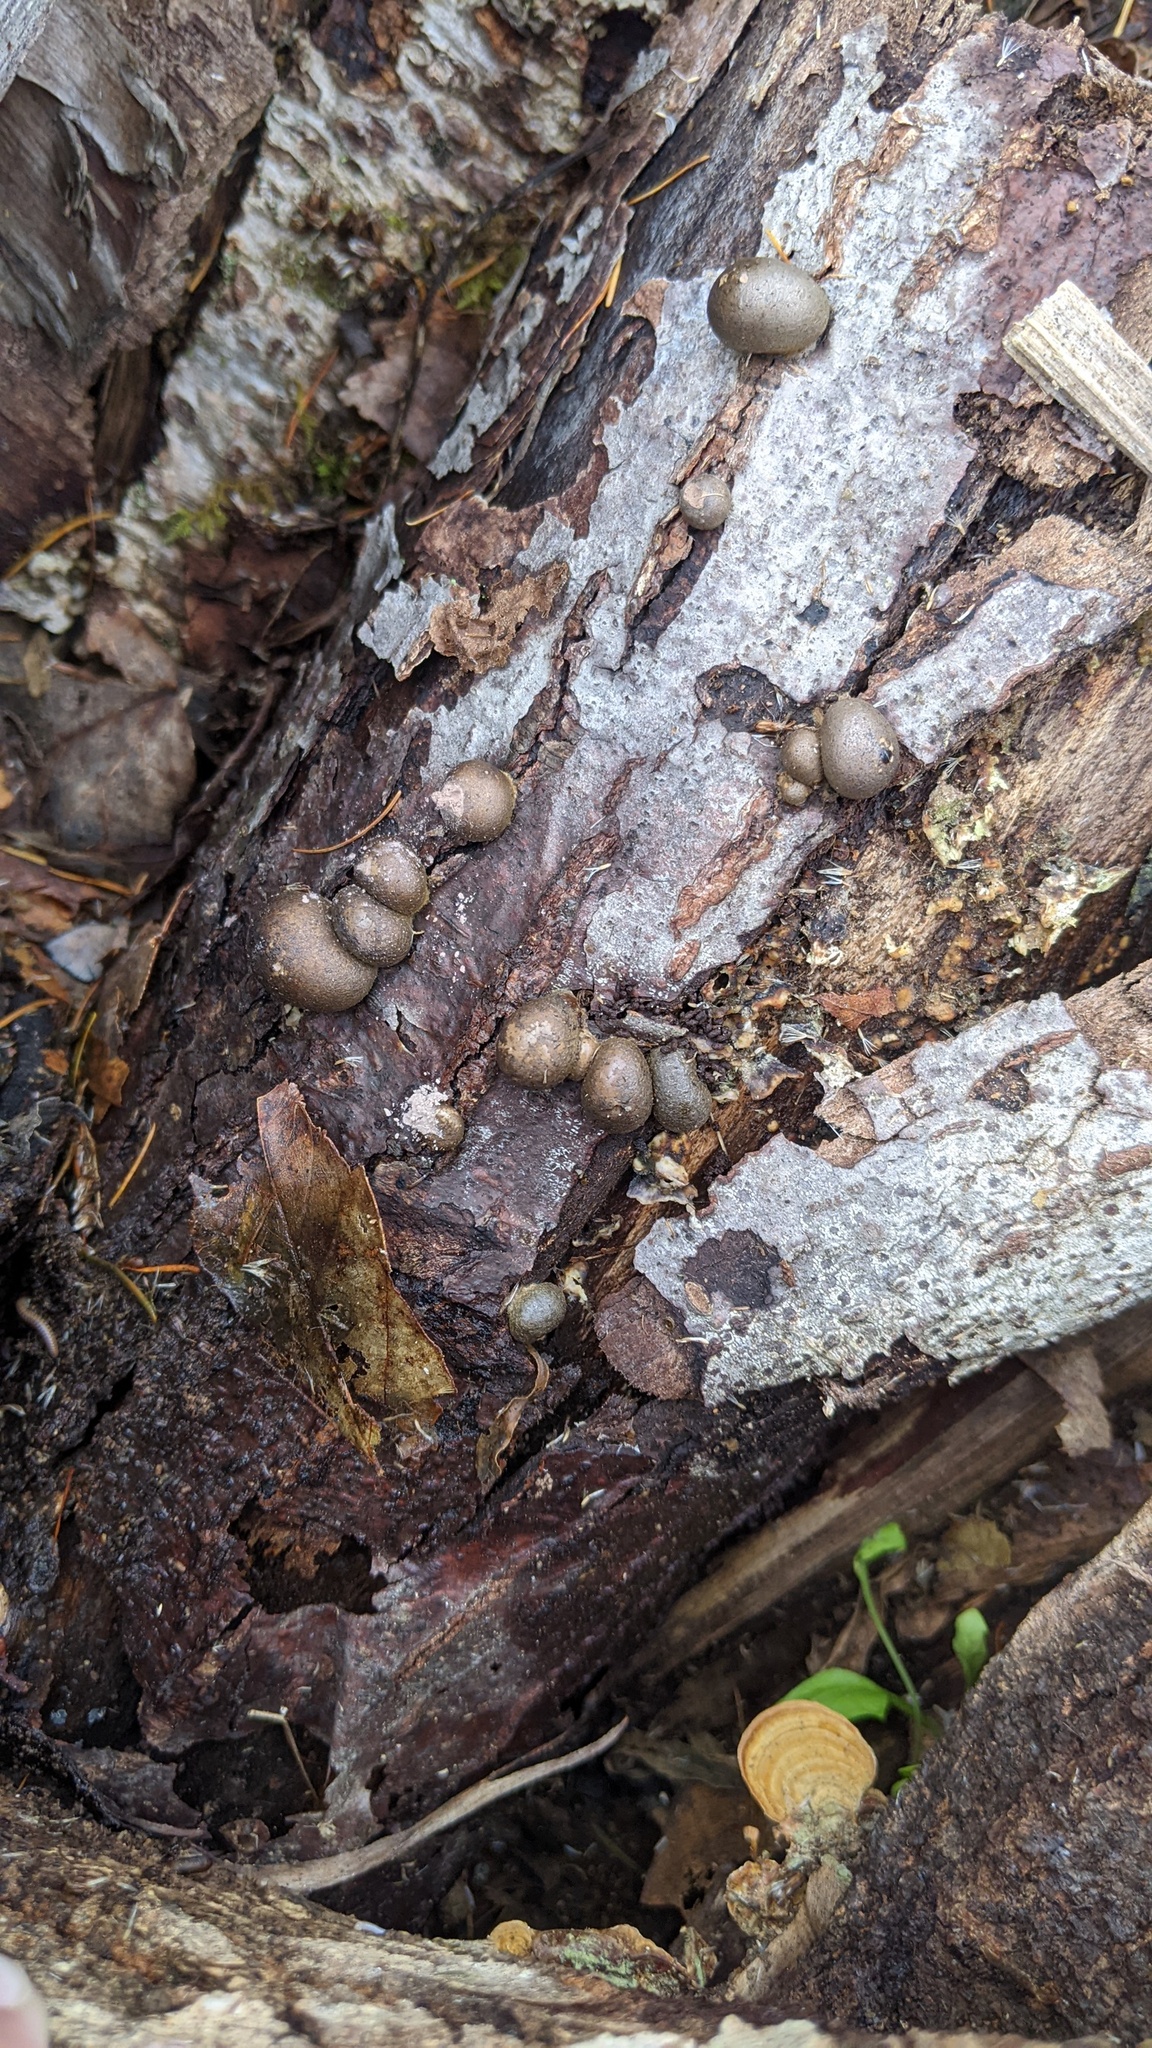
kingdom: Protozoa
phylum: Mycetozoa
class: Myxomycetes
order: Cribrariales
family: Tubiferaceae
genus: Lycogala
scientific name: Lycogala epidendrum
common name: Wolf's milk
